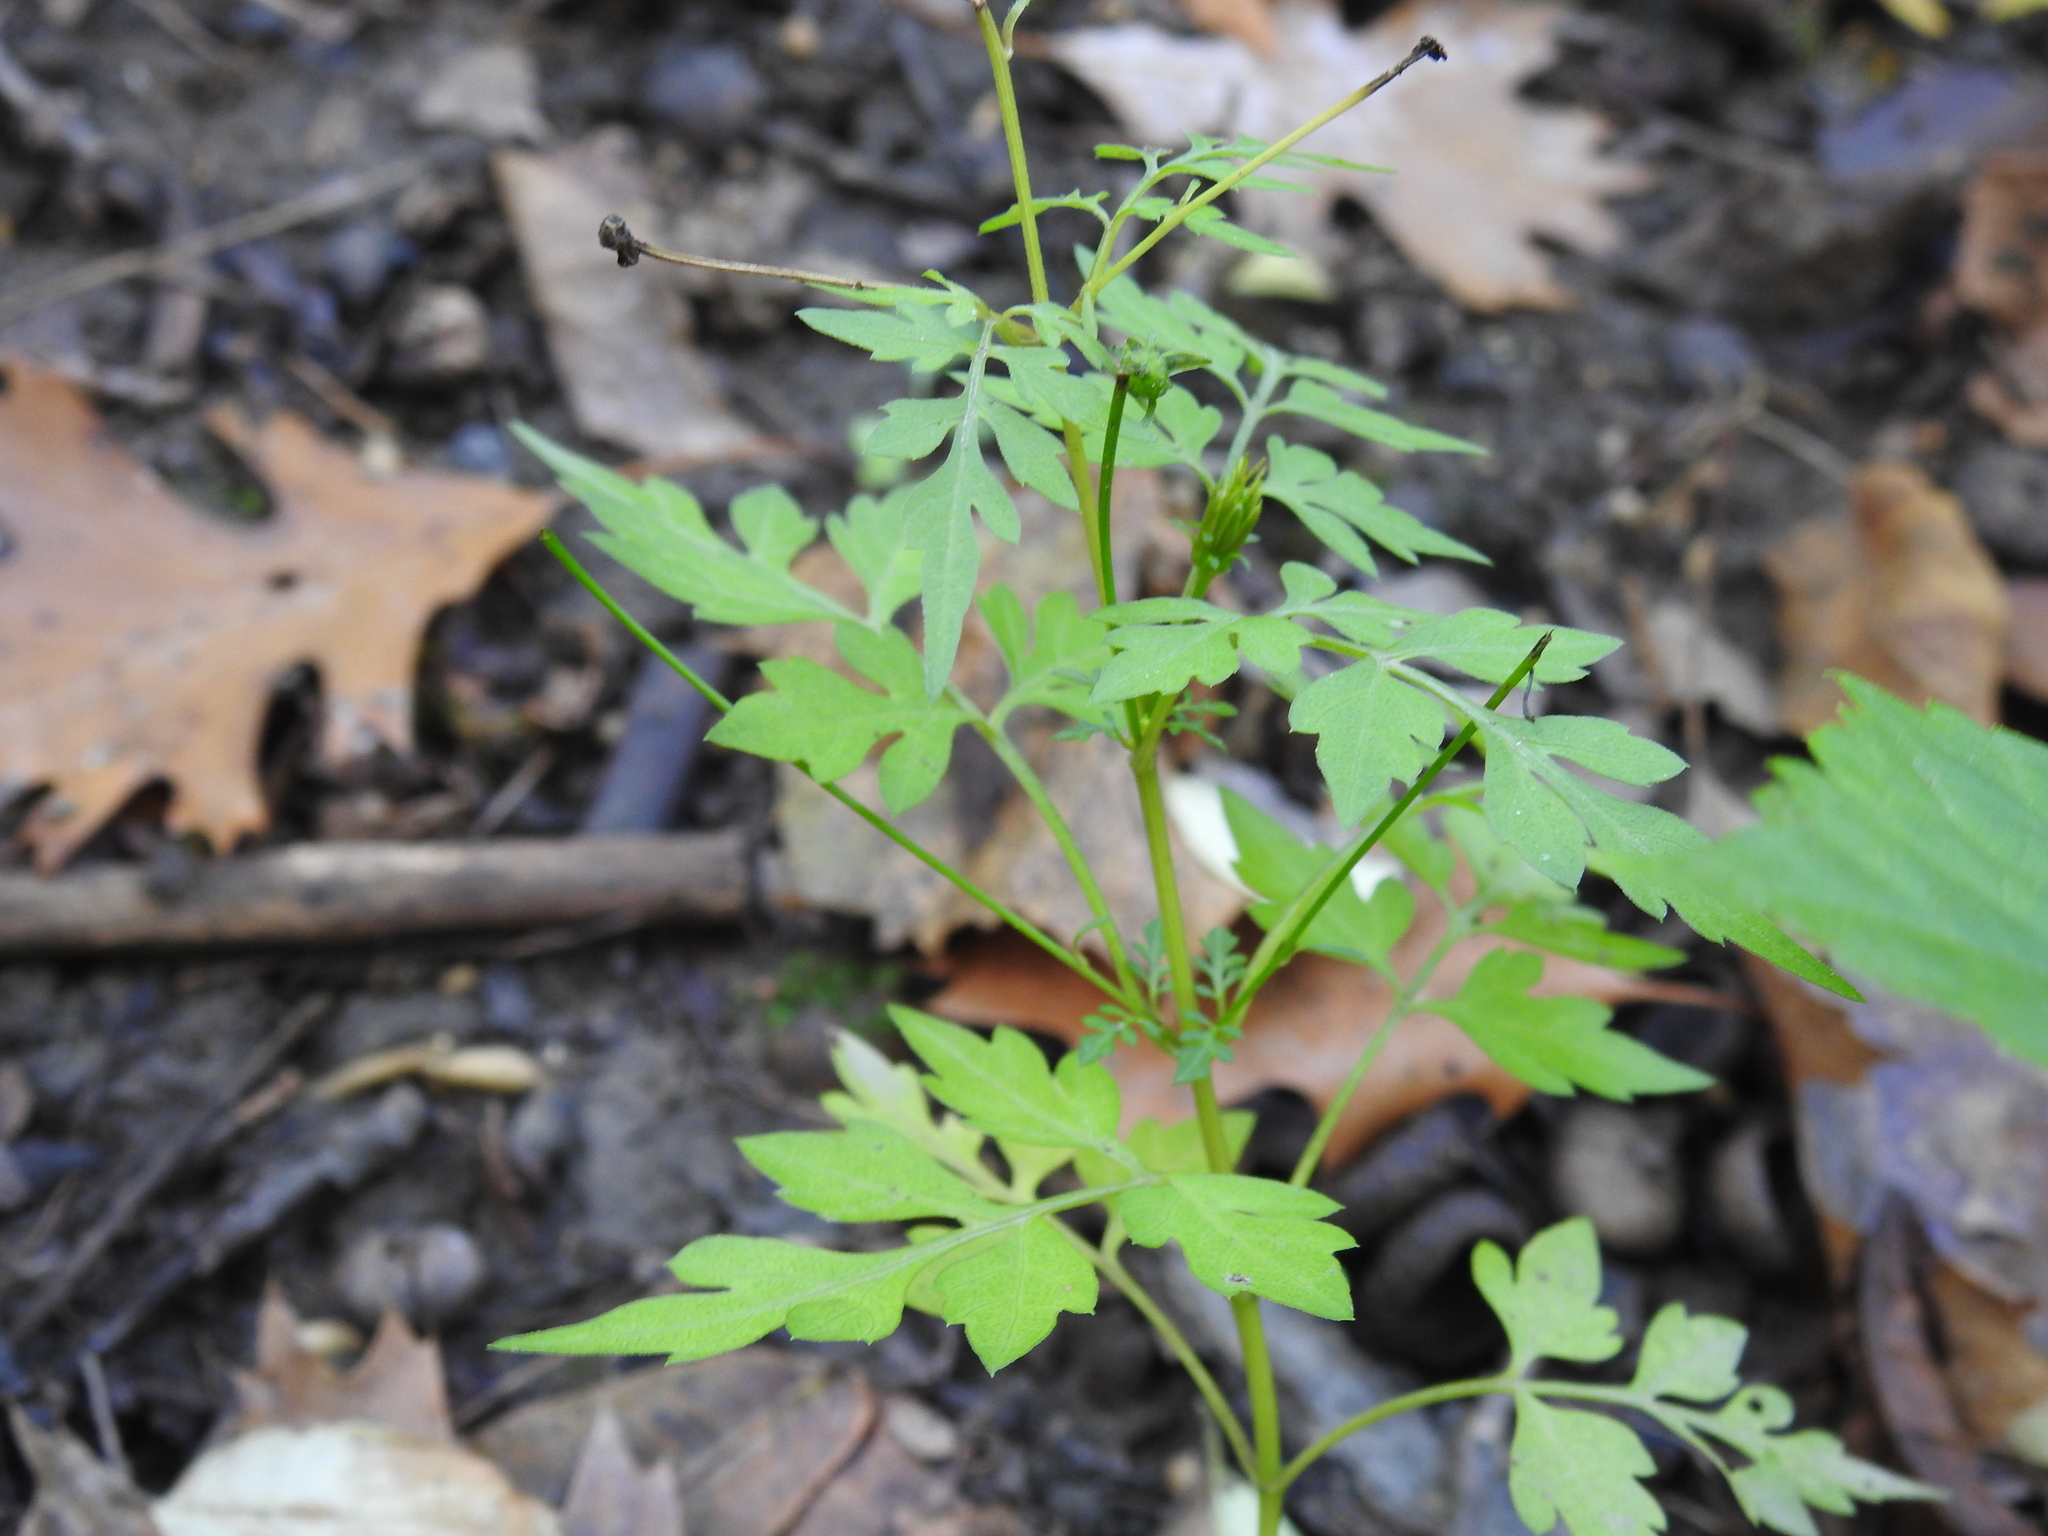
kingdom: Plantae
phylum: Tracheophyta
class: Magnoliopsida
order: Asterales
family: Asteraceae
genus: Bidens
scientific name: Bidens bipinnata
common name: Spanish-needles
